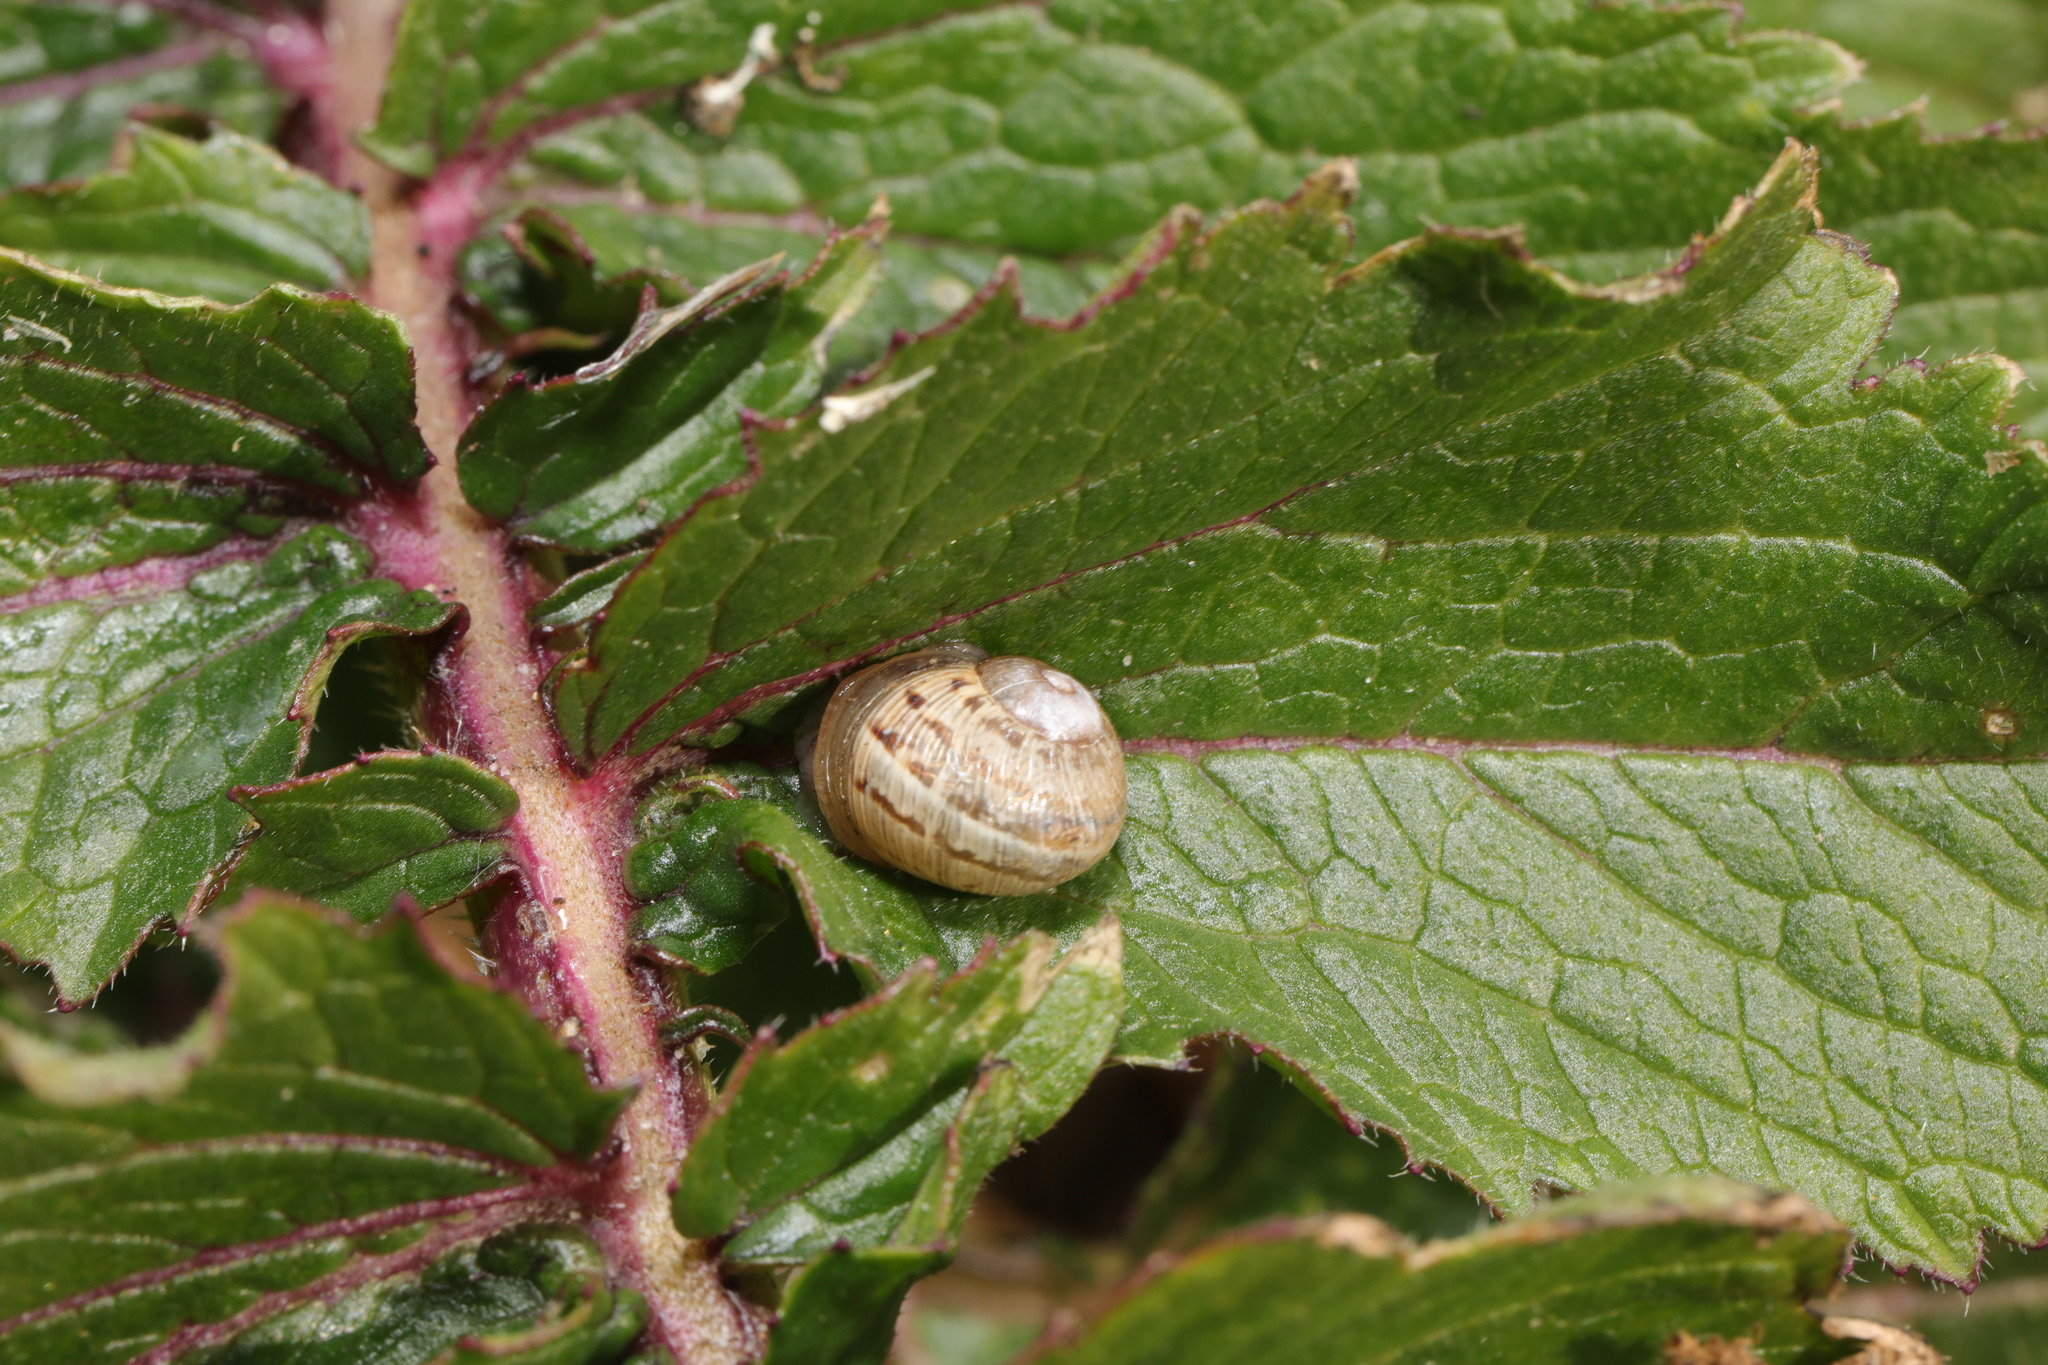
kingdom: Animalia
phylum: Mollusca
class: Gastropoda
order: Stylommatophora
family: Helicidae
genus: Cornu
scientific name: Cornu aspersum
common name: Brown garden snail
